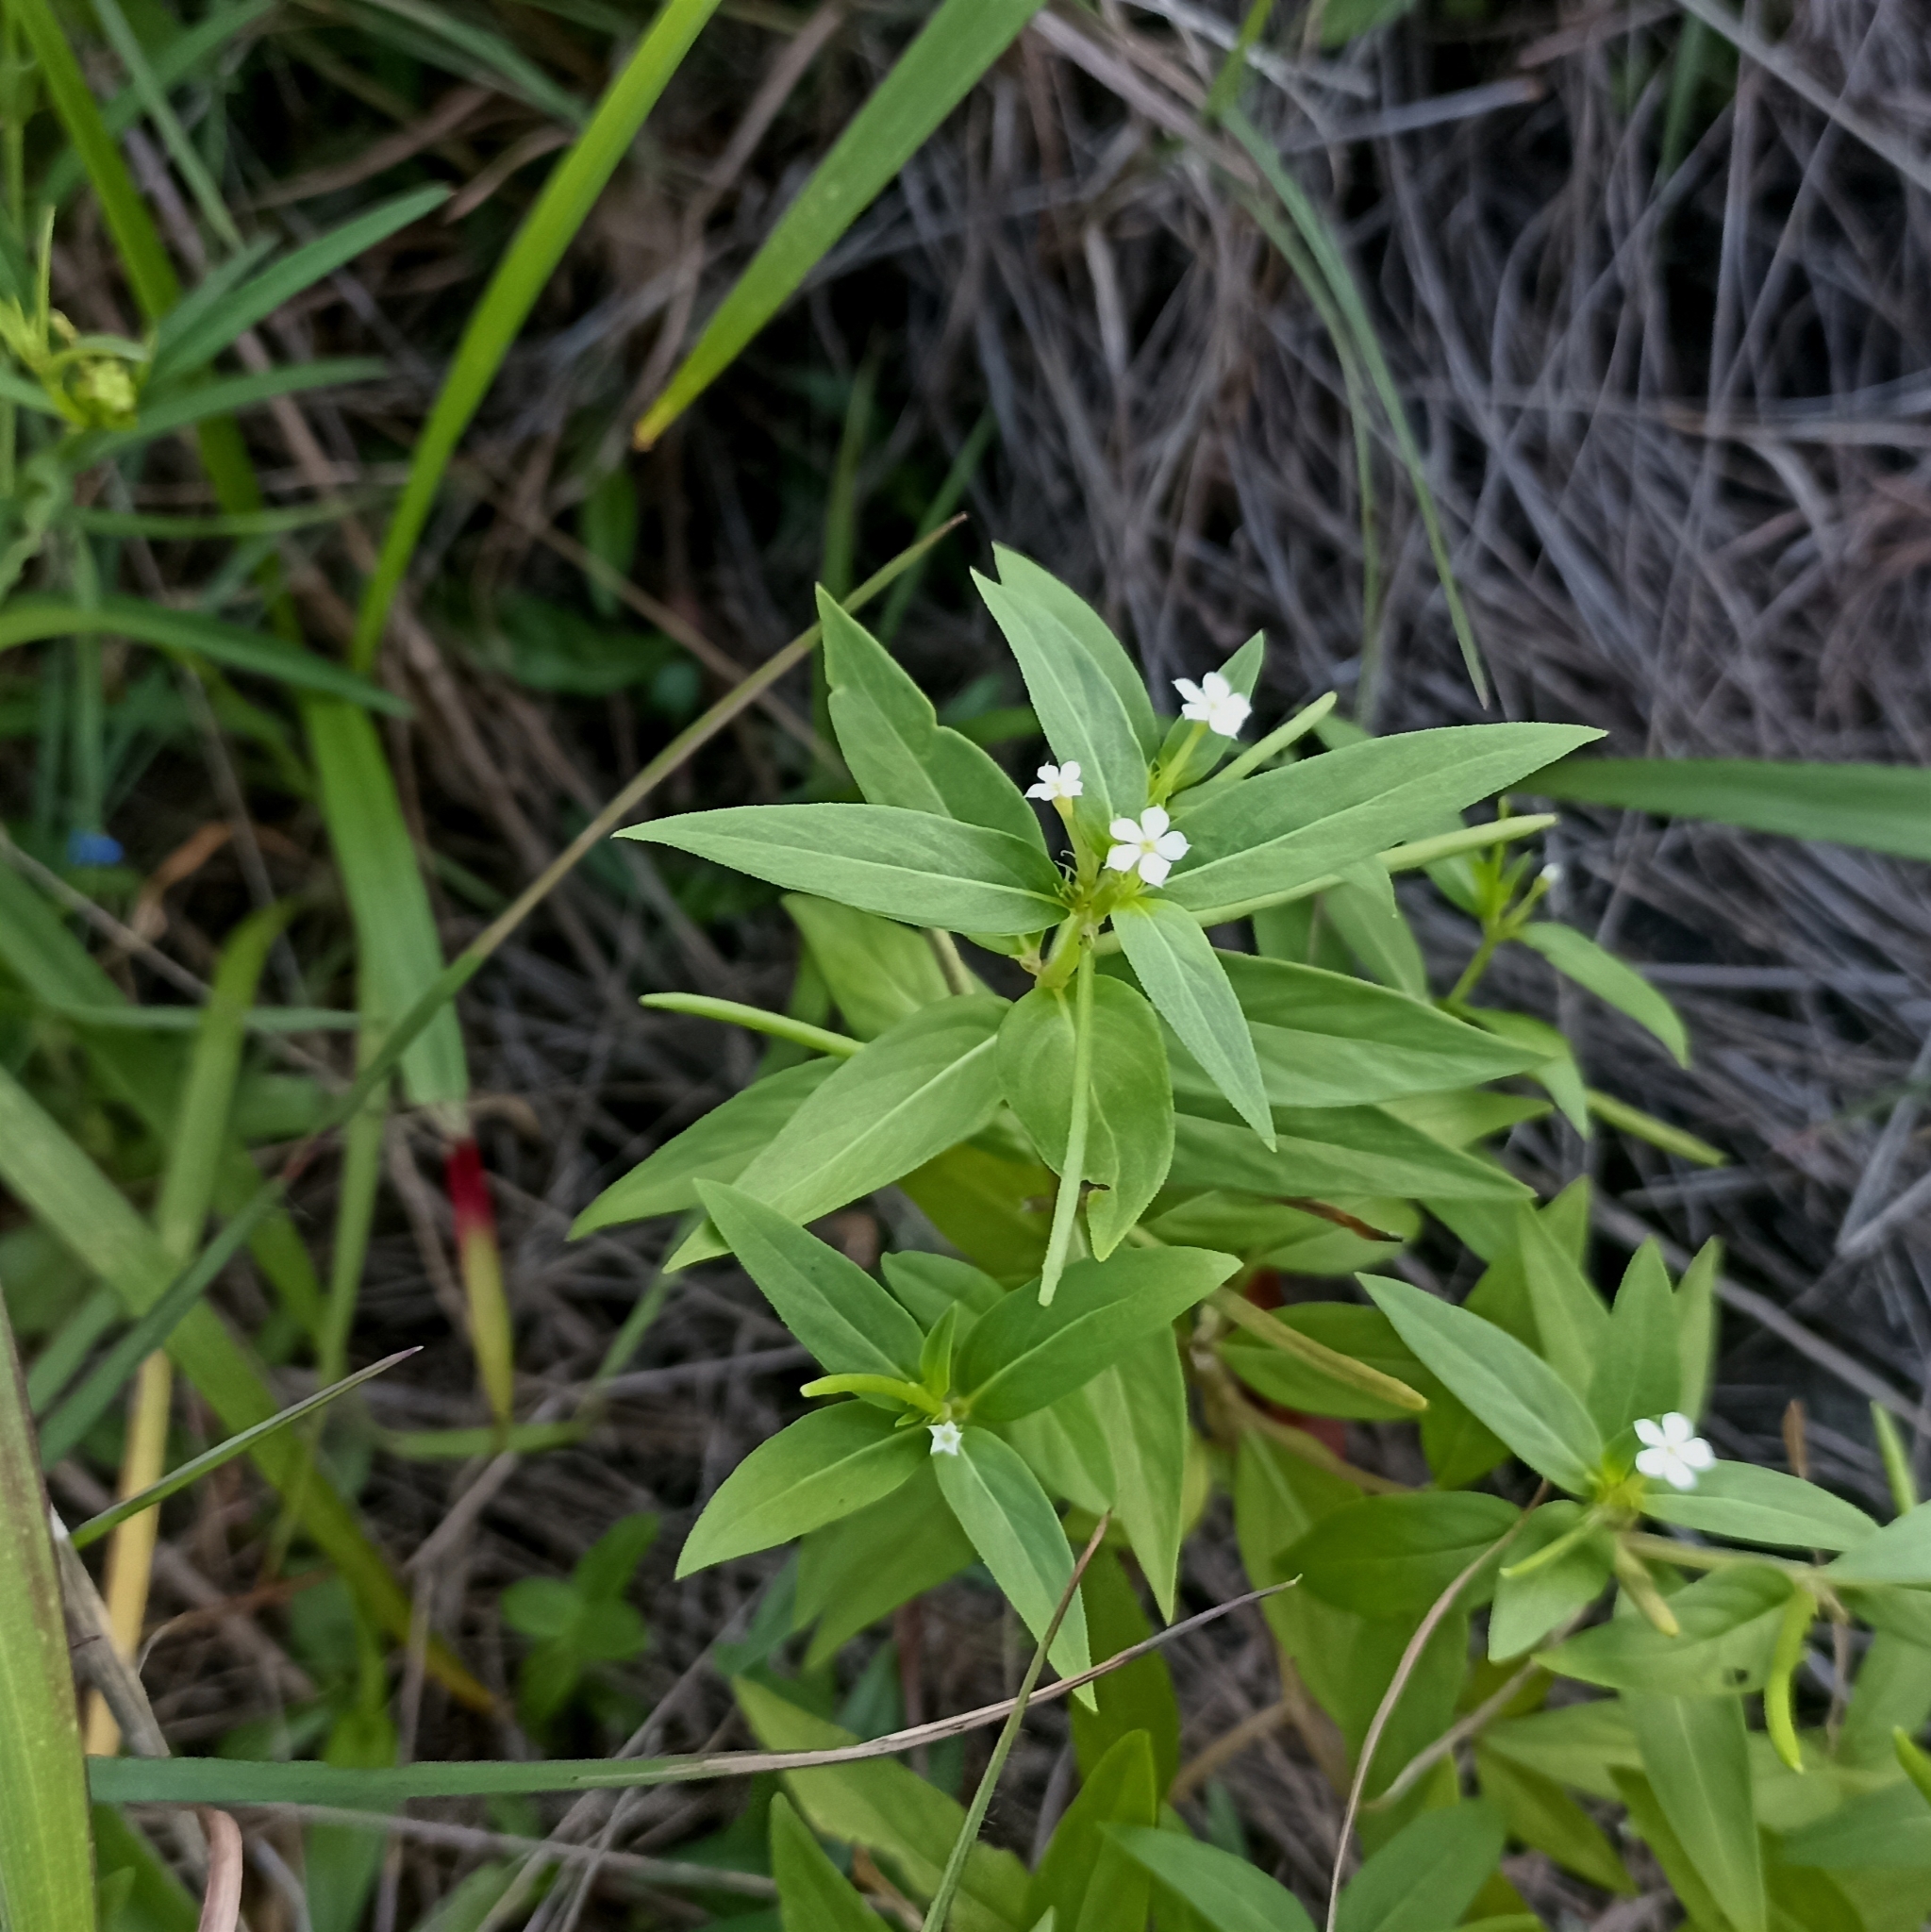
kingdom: Plantae
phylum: Tracheophyta
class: Magnoliopsida
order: Gentianales
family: Apocynaceae
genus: Catharanthus
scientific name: Catharanthus pusillus
